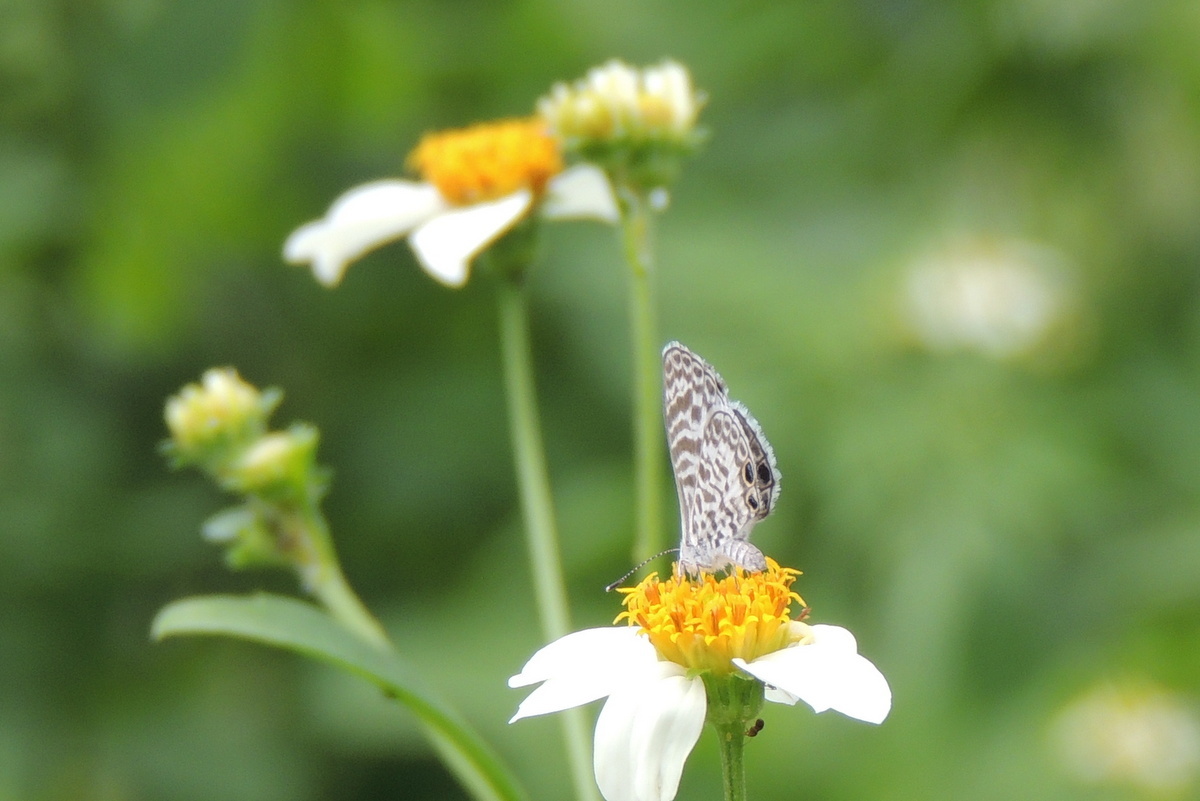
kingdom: Animalia
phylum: Arthropoda
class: Insecta
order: Lepidoptera
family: Lycaenidae
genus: Leptotes
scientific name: Leptotes cassius
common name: Cassius blue
